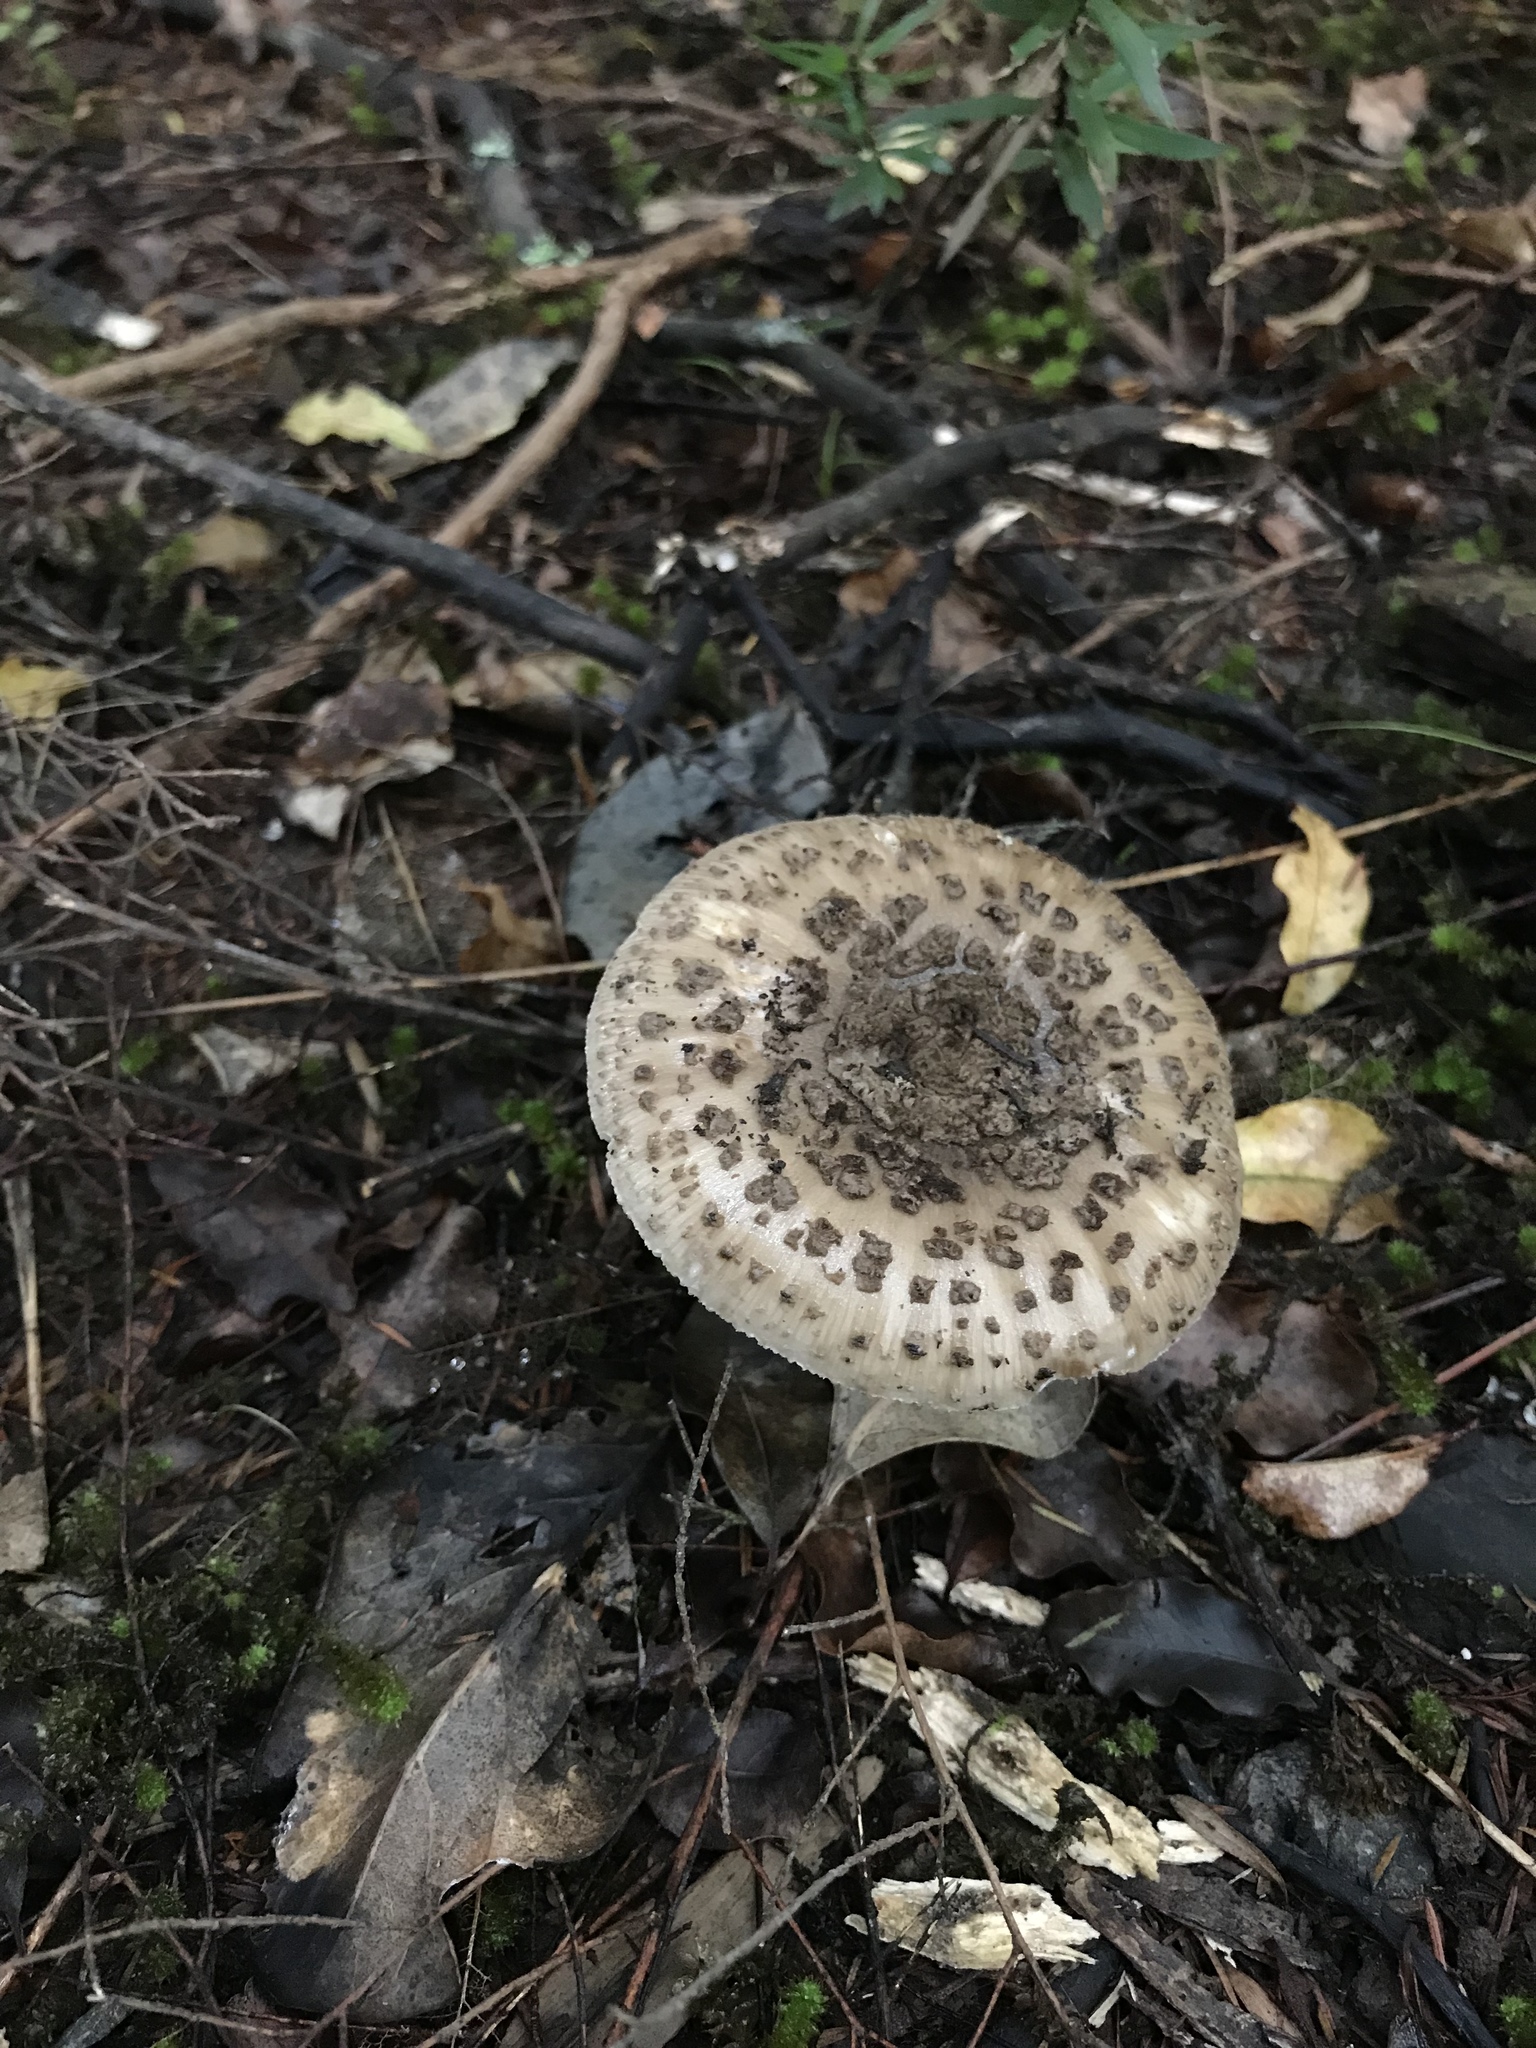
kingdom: Fungi
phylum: Basidiomycota
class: Agaricomycetes
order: Agaricales
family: Amanitaceae
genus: Amanita
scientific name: Amanita karea
